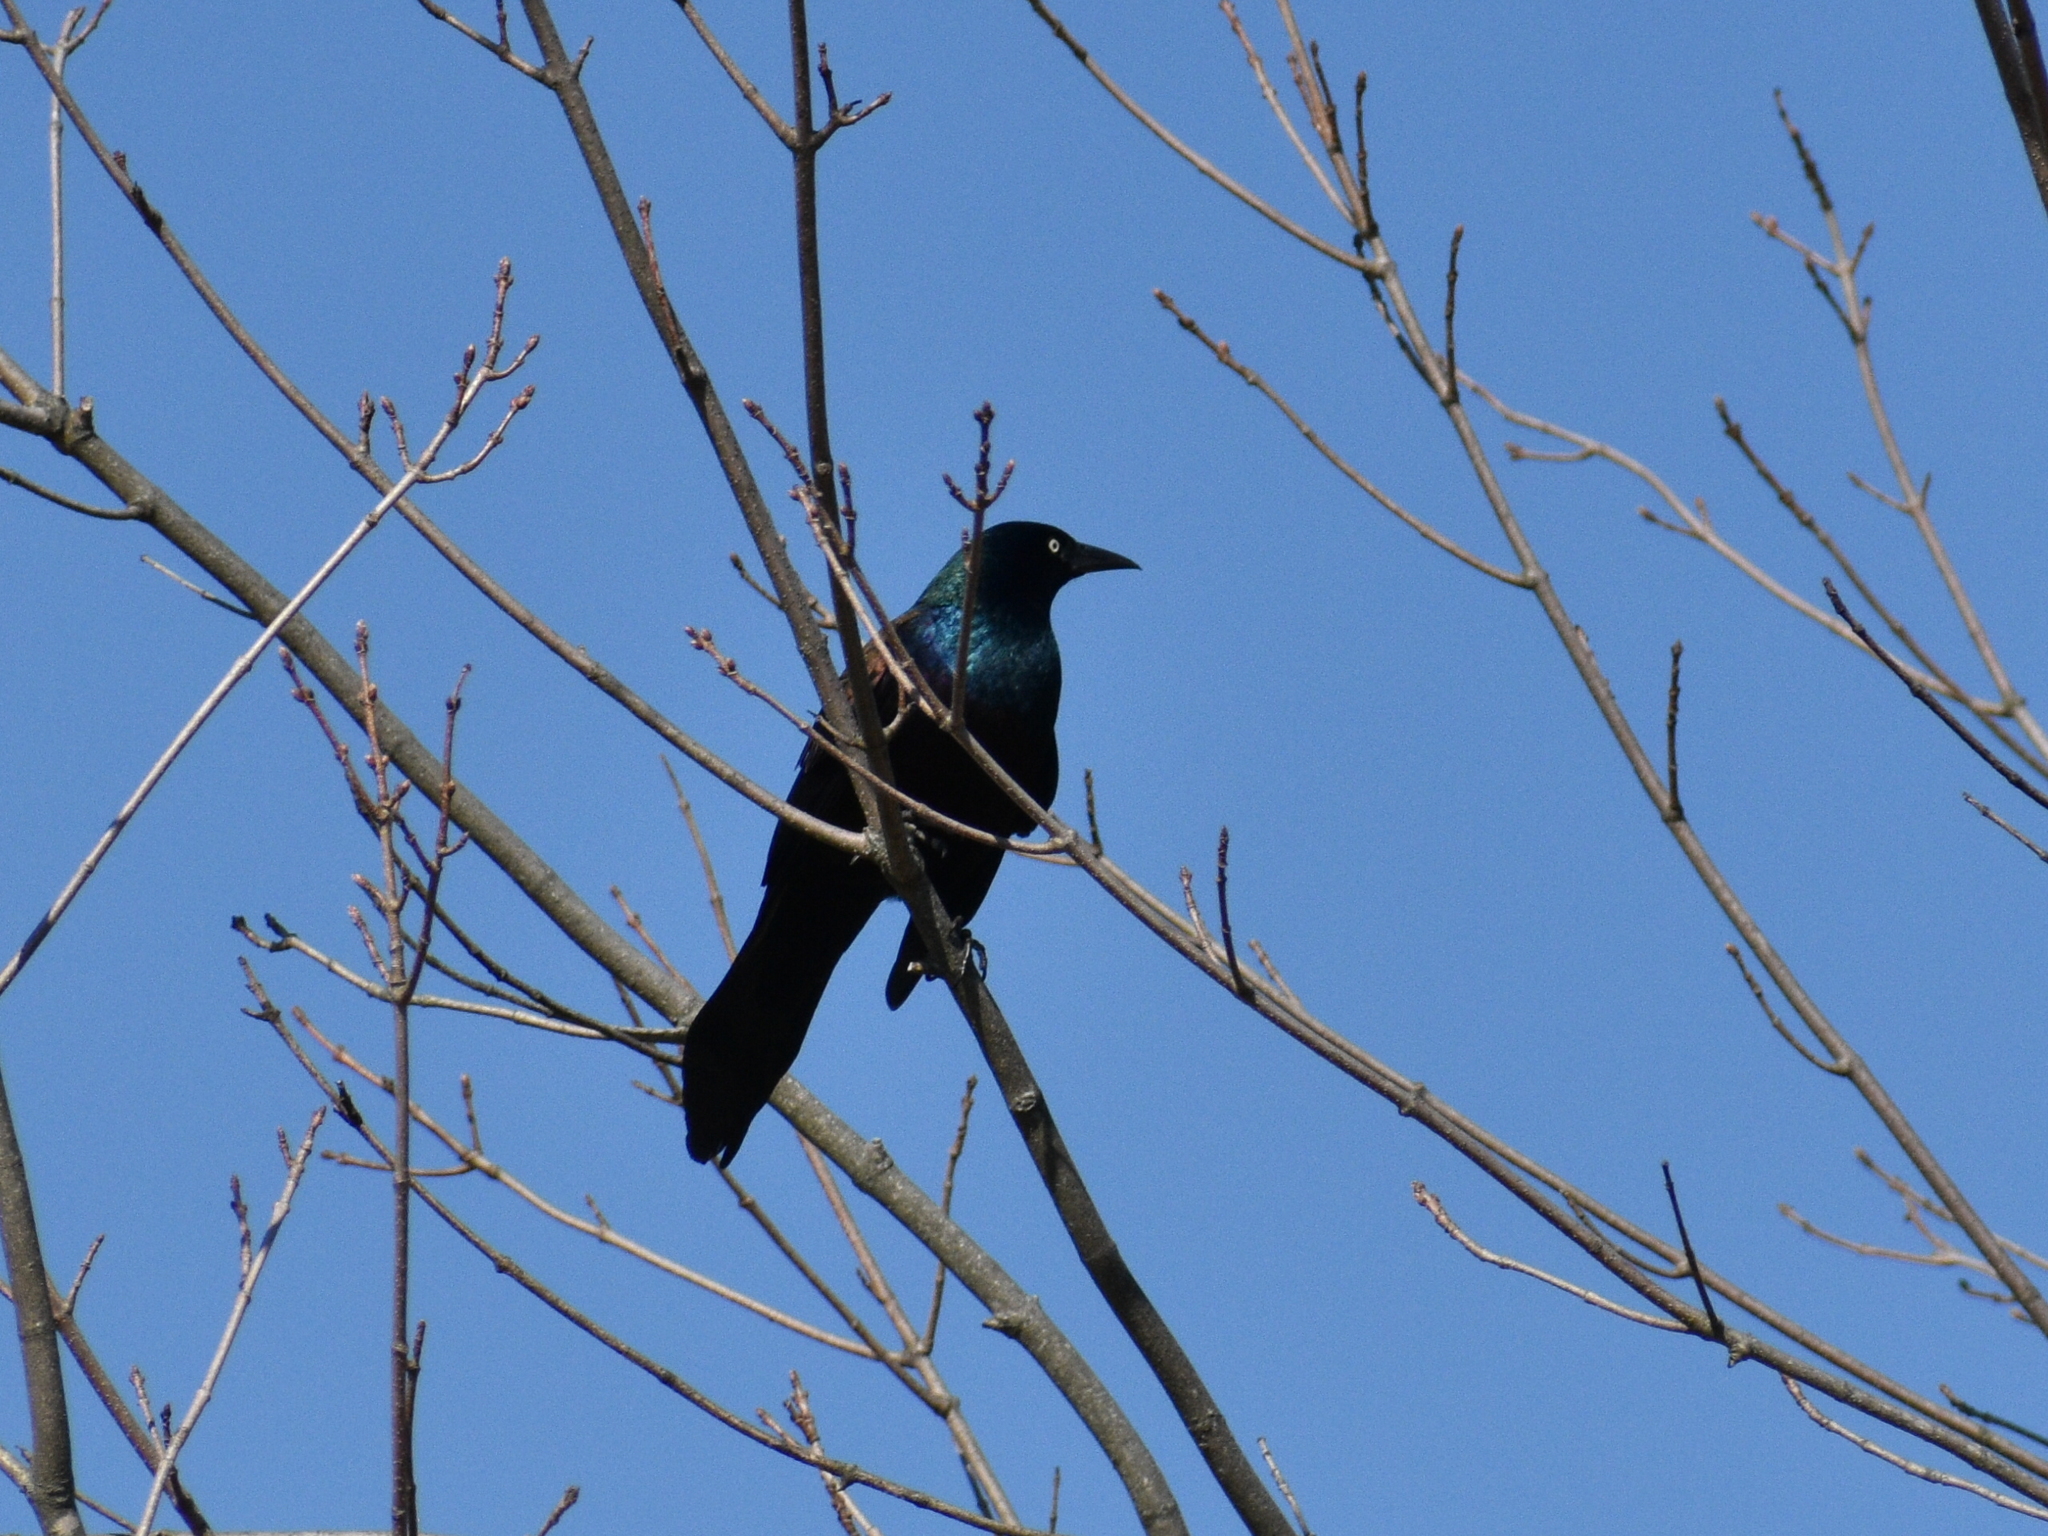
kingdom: Animalia
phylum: Chordata
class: Aves
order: Passeriformes
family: Icteridae
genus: Quiscalus
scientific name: Quiscalus quiscula
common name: Common grackle
